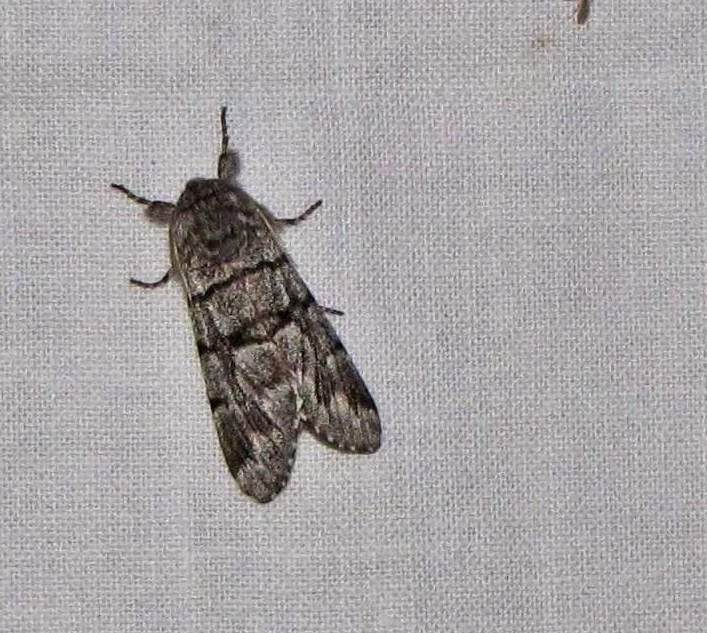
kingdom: Animalia
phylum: Arthropoda
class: Insecta
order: Lepidoptera
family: Noctuidae
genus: Panthea
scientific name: Panthea furcilla
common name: Eastern panthea moth
